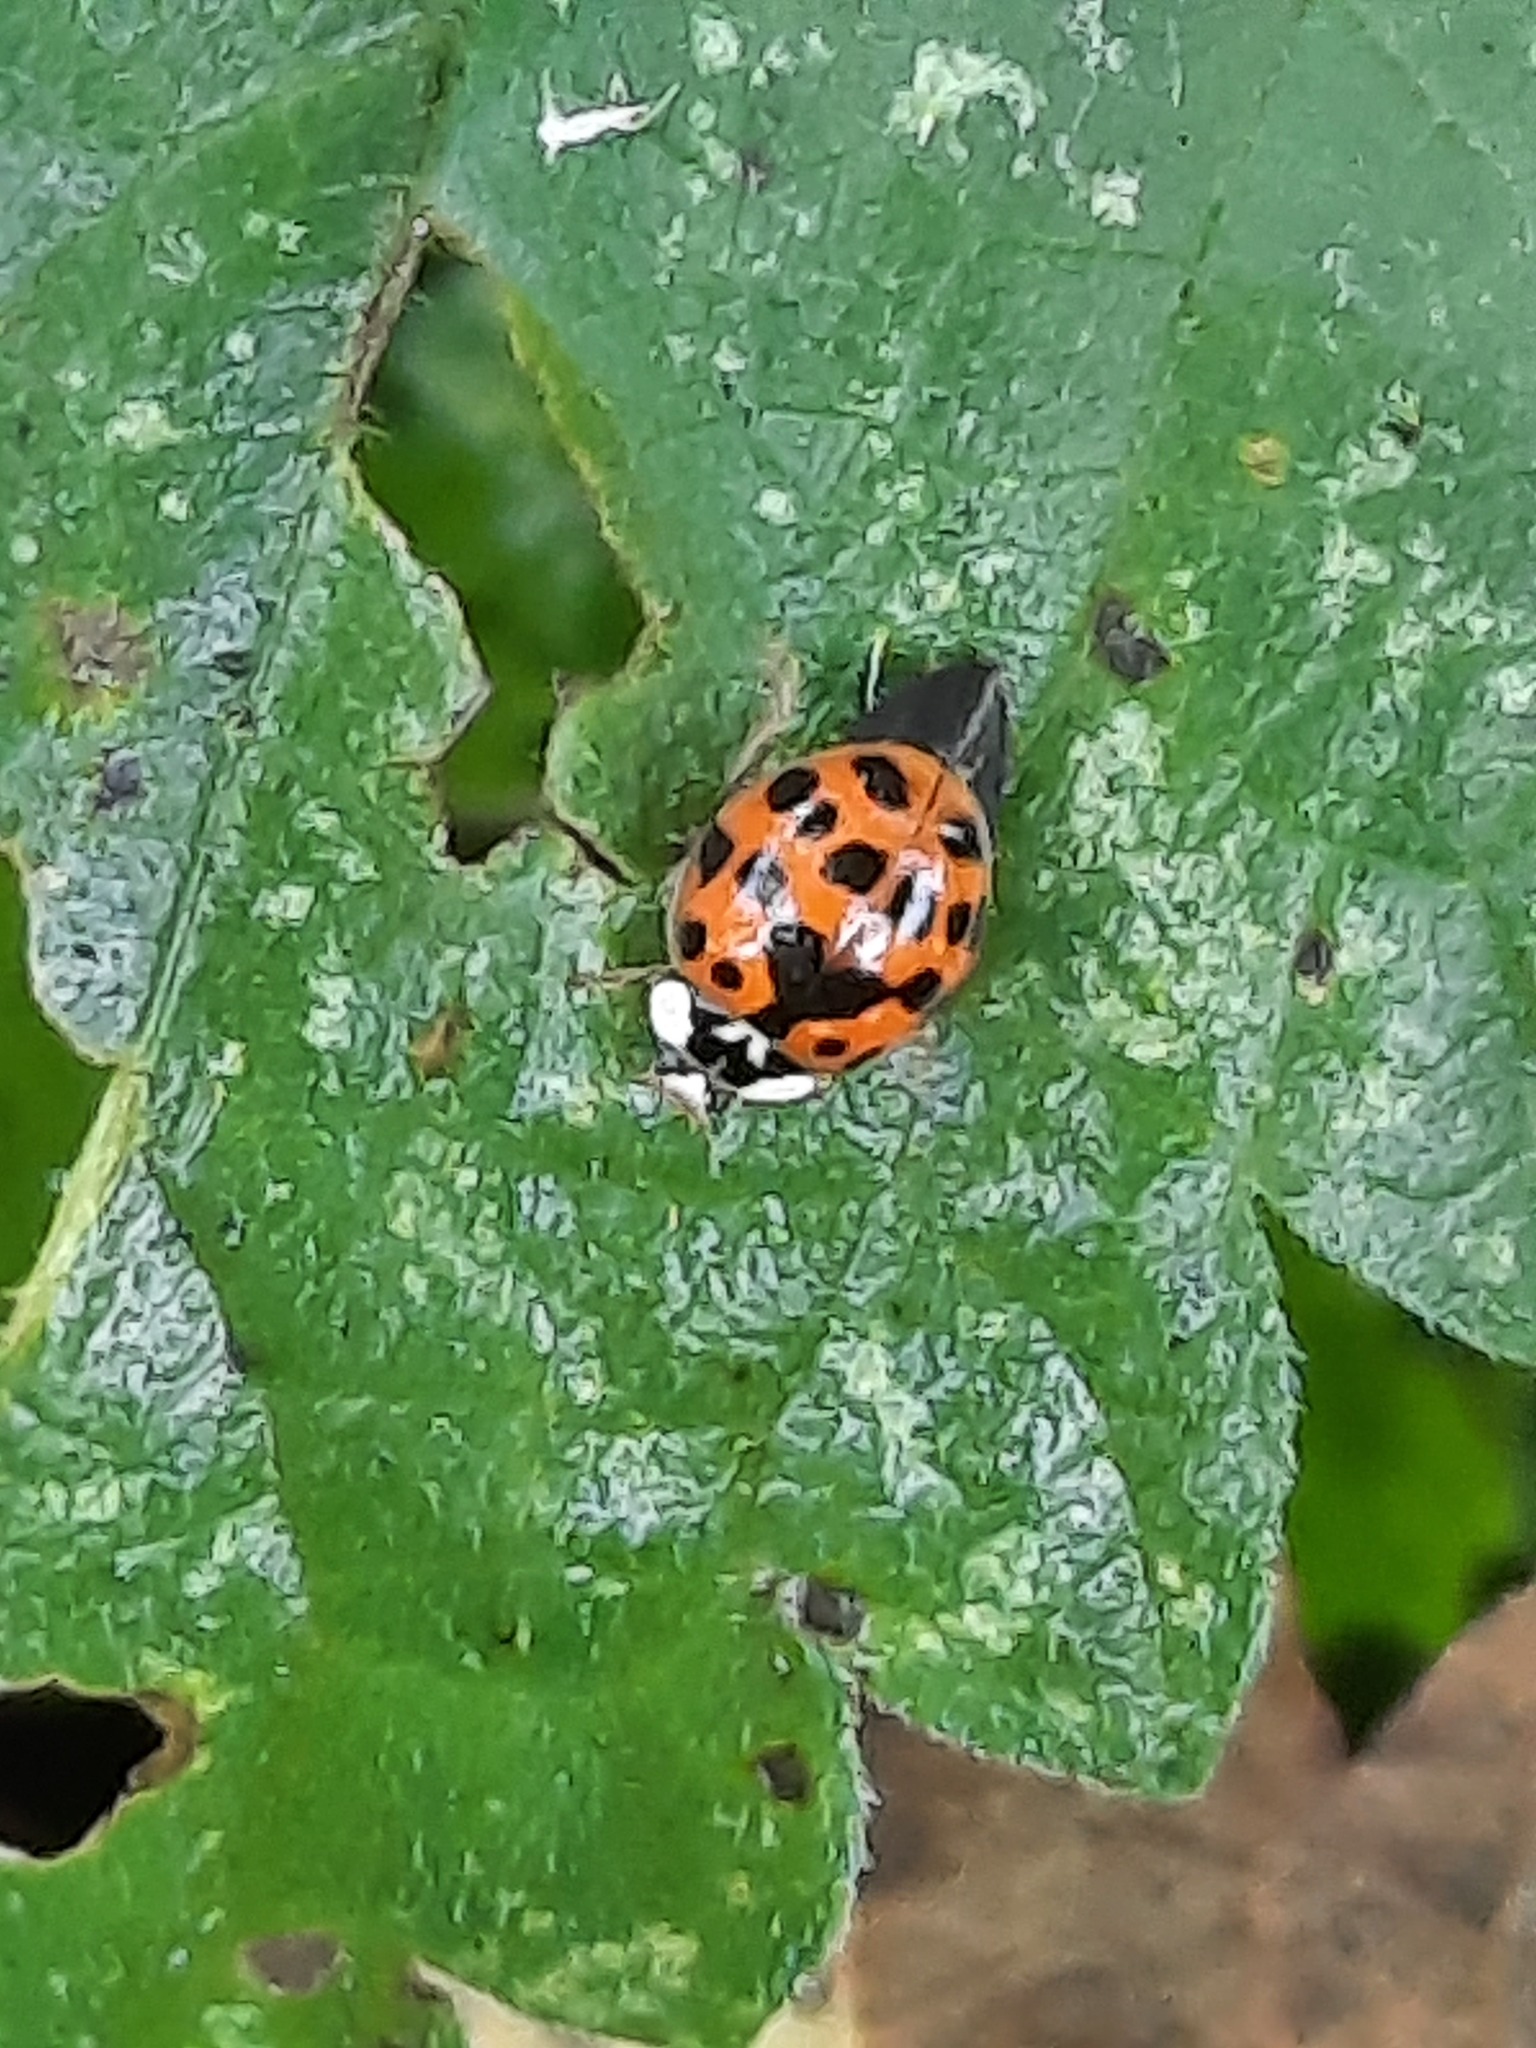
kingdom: Animalia
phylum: Arthropoda
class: Insecta
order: Coleoptera
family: Coccinellidae
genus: Harmonia
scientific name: Harmonia axyridis
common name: Harlequin ladybird
